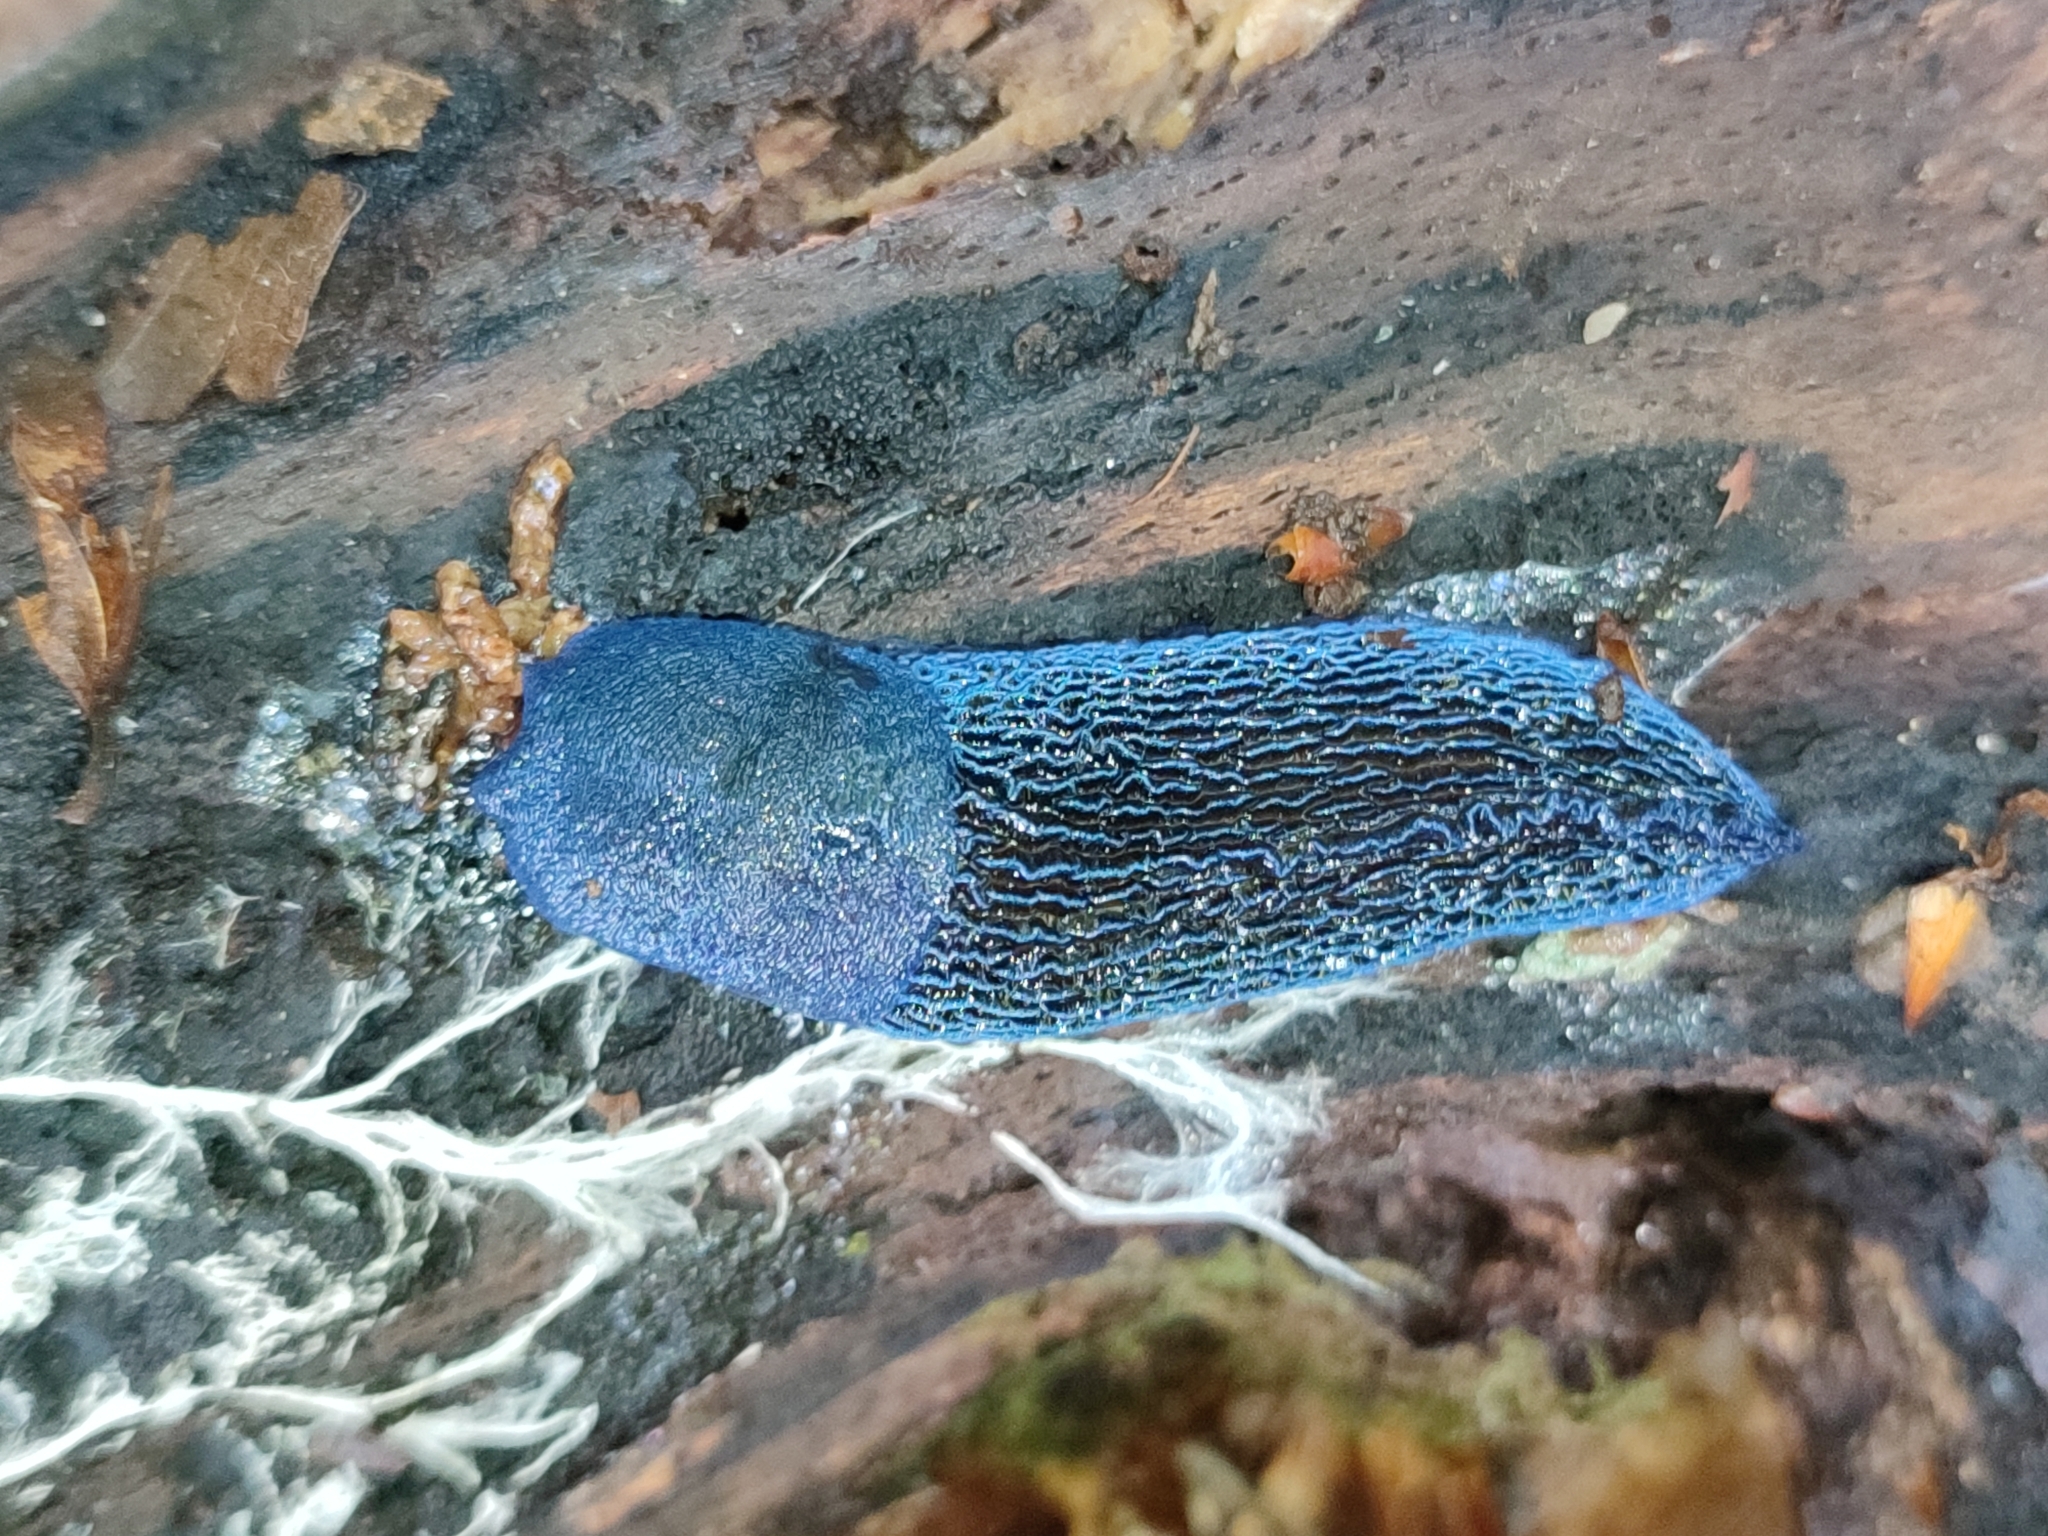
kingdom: Animalia
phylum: Mollusca
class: Gastropoda
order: Stylommatophora
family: Limacidae
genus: Bielzia
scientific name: Bielzia coerulans
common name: Carpathian blue slug
